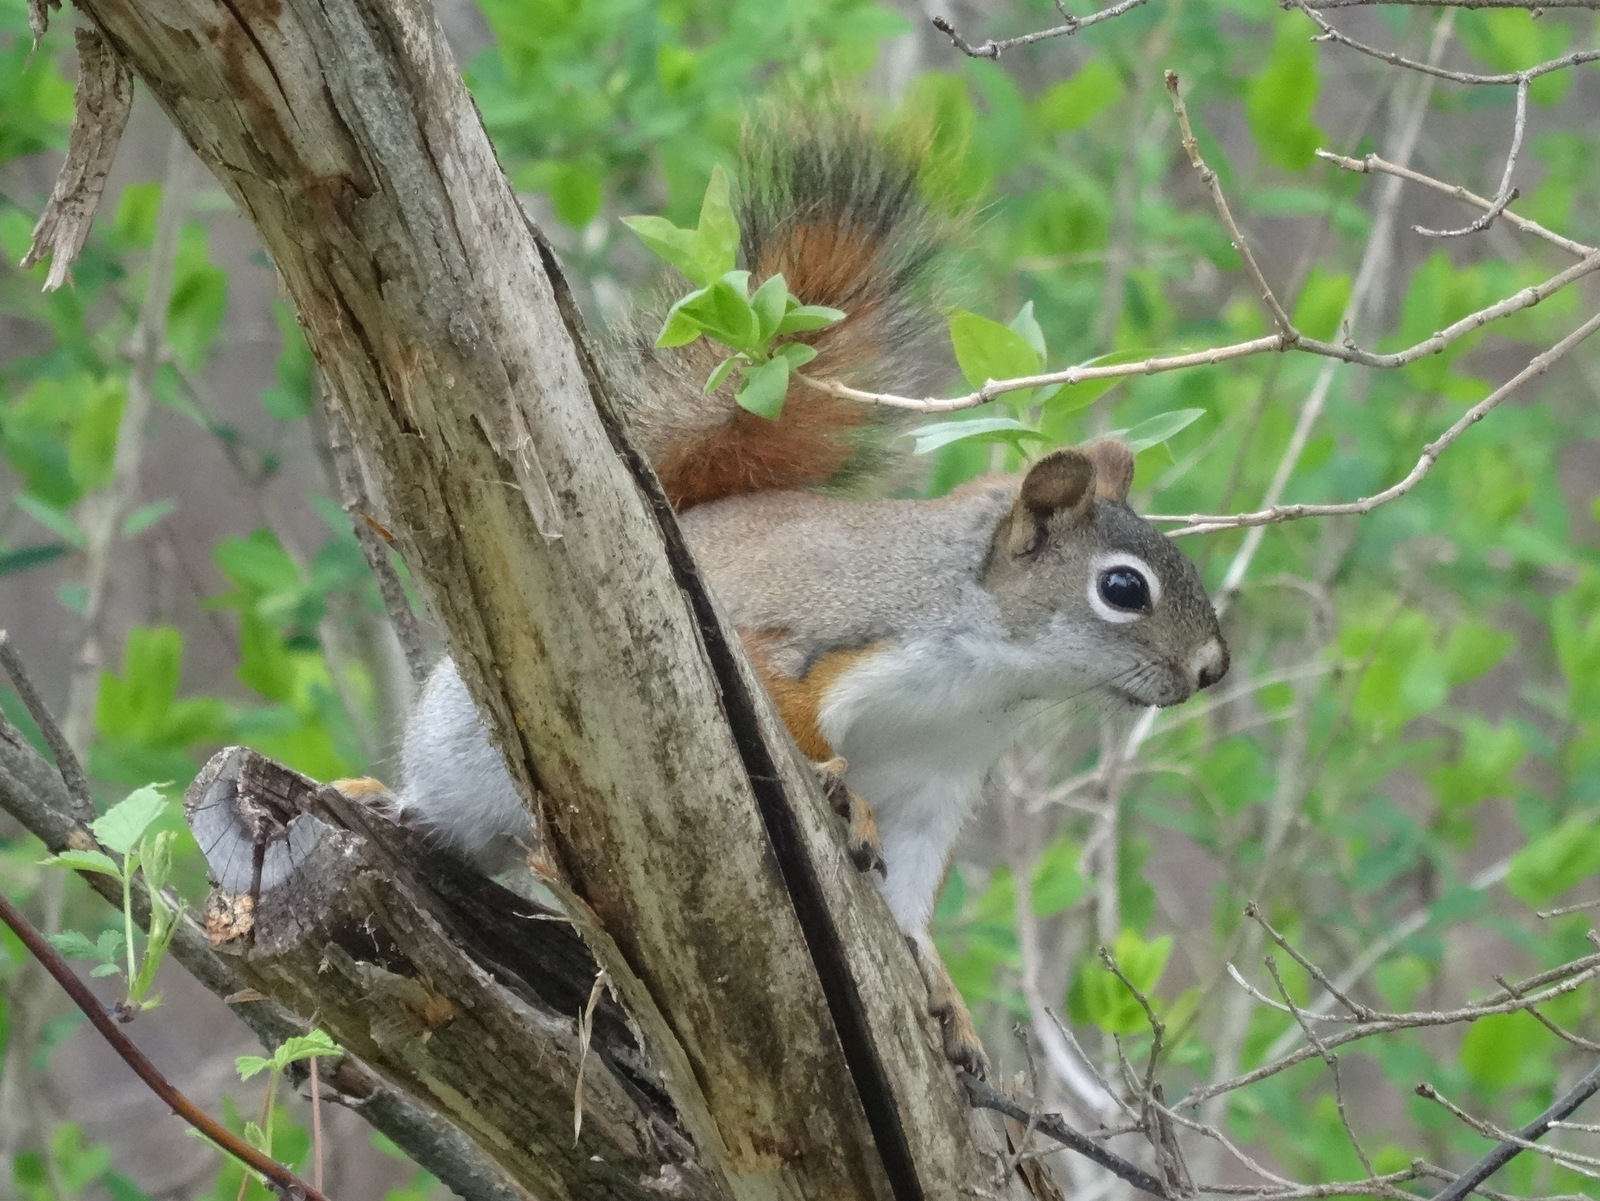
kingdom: Animalia
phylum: Chordata
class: Mammalia
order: Rodentia
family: Sciuridae
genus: Tamiasciurus
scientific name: Tamiasciurus hudsonicus
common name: Red squirrel
